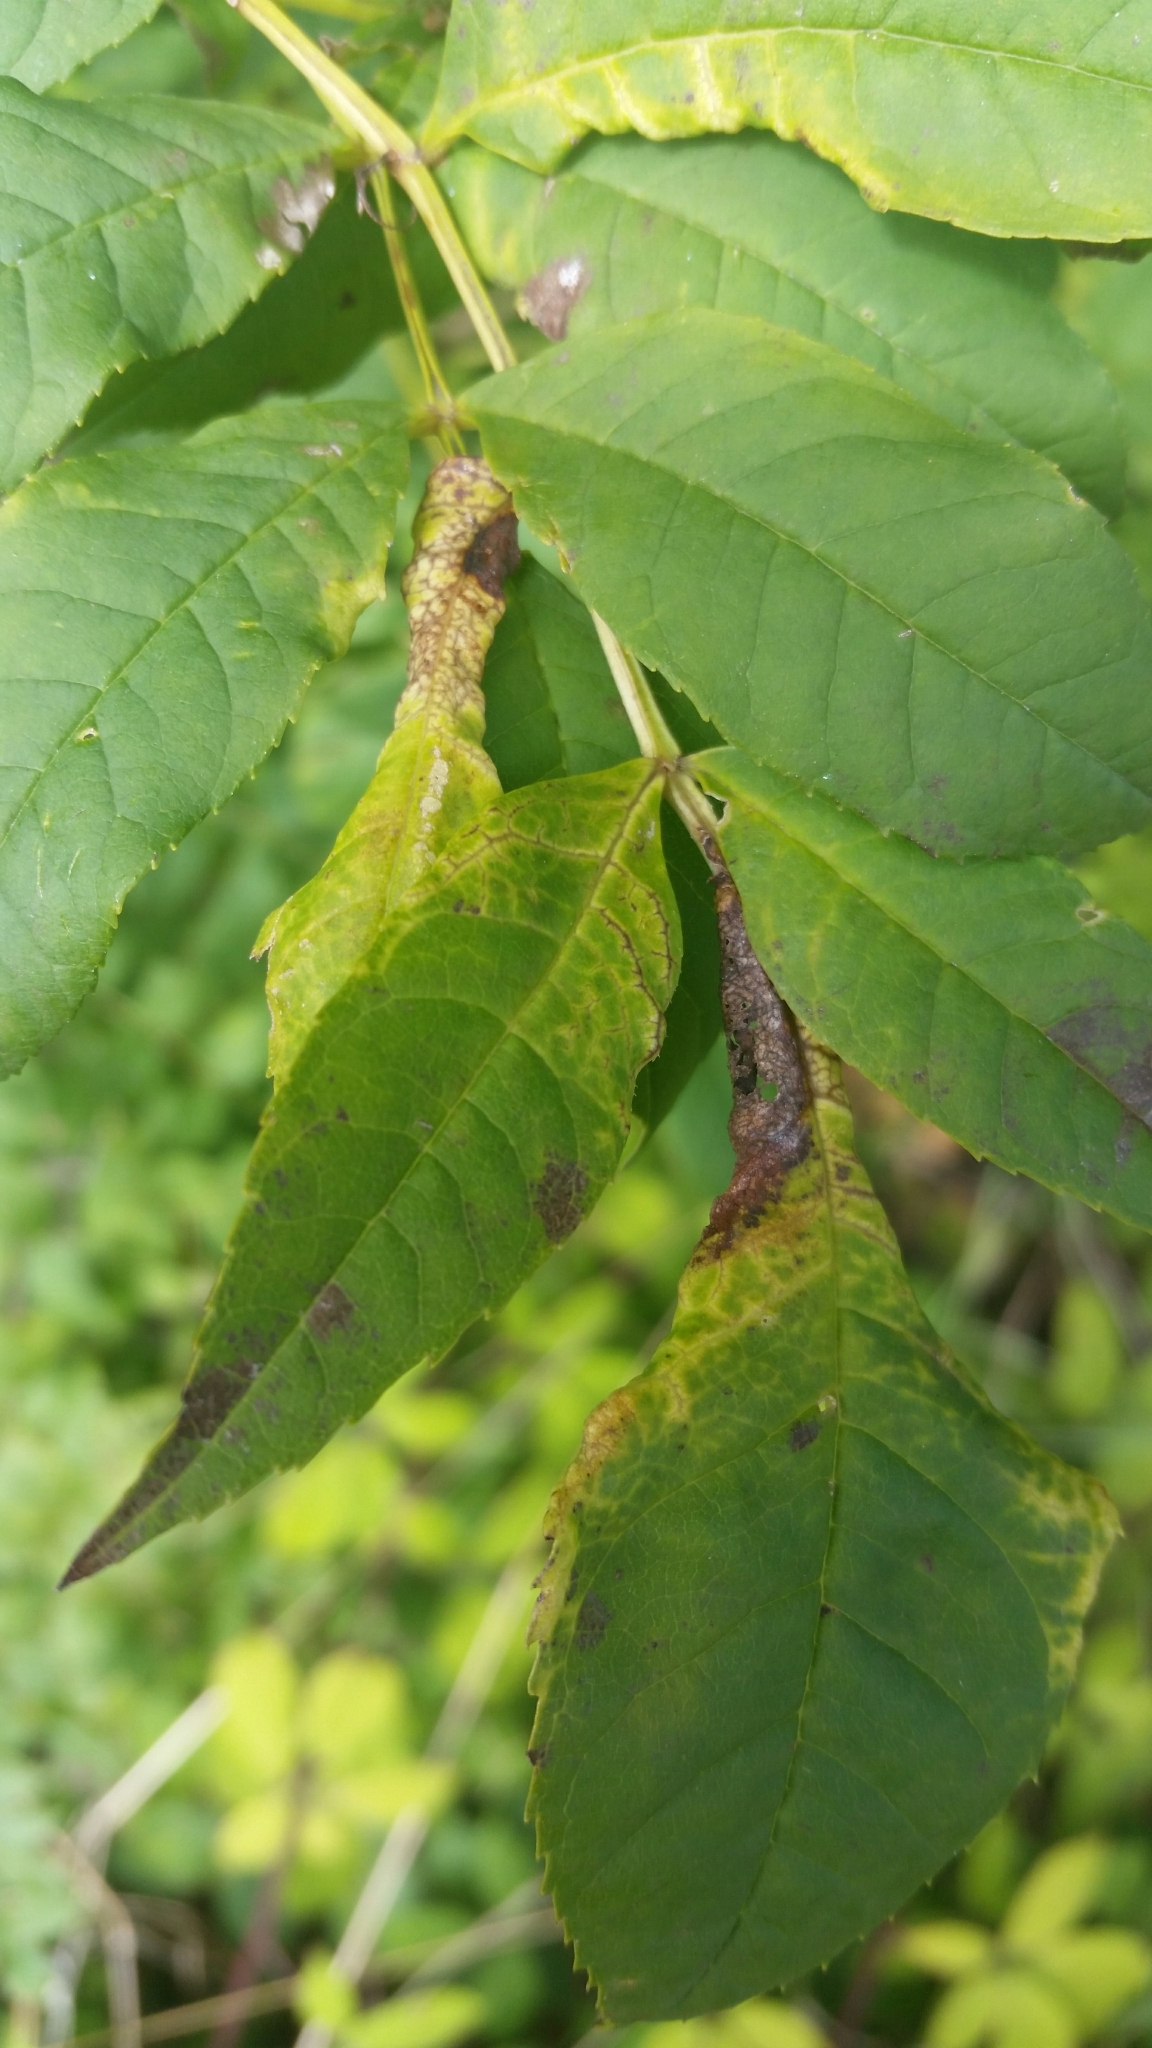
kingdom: Animalia
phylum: Arthropoda
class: Insecta
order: Hemiptera
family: Liviidae
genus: Psyllopsis
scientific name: Psyllopsis fraxini
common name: Jumping plant louse
